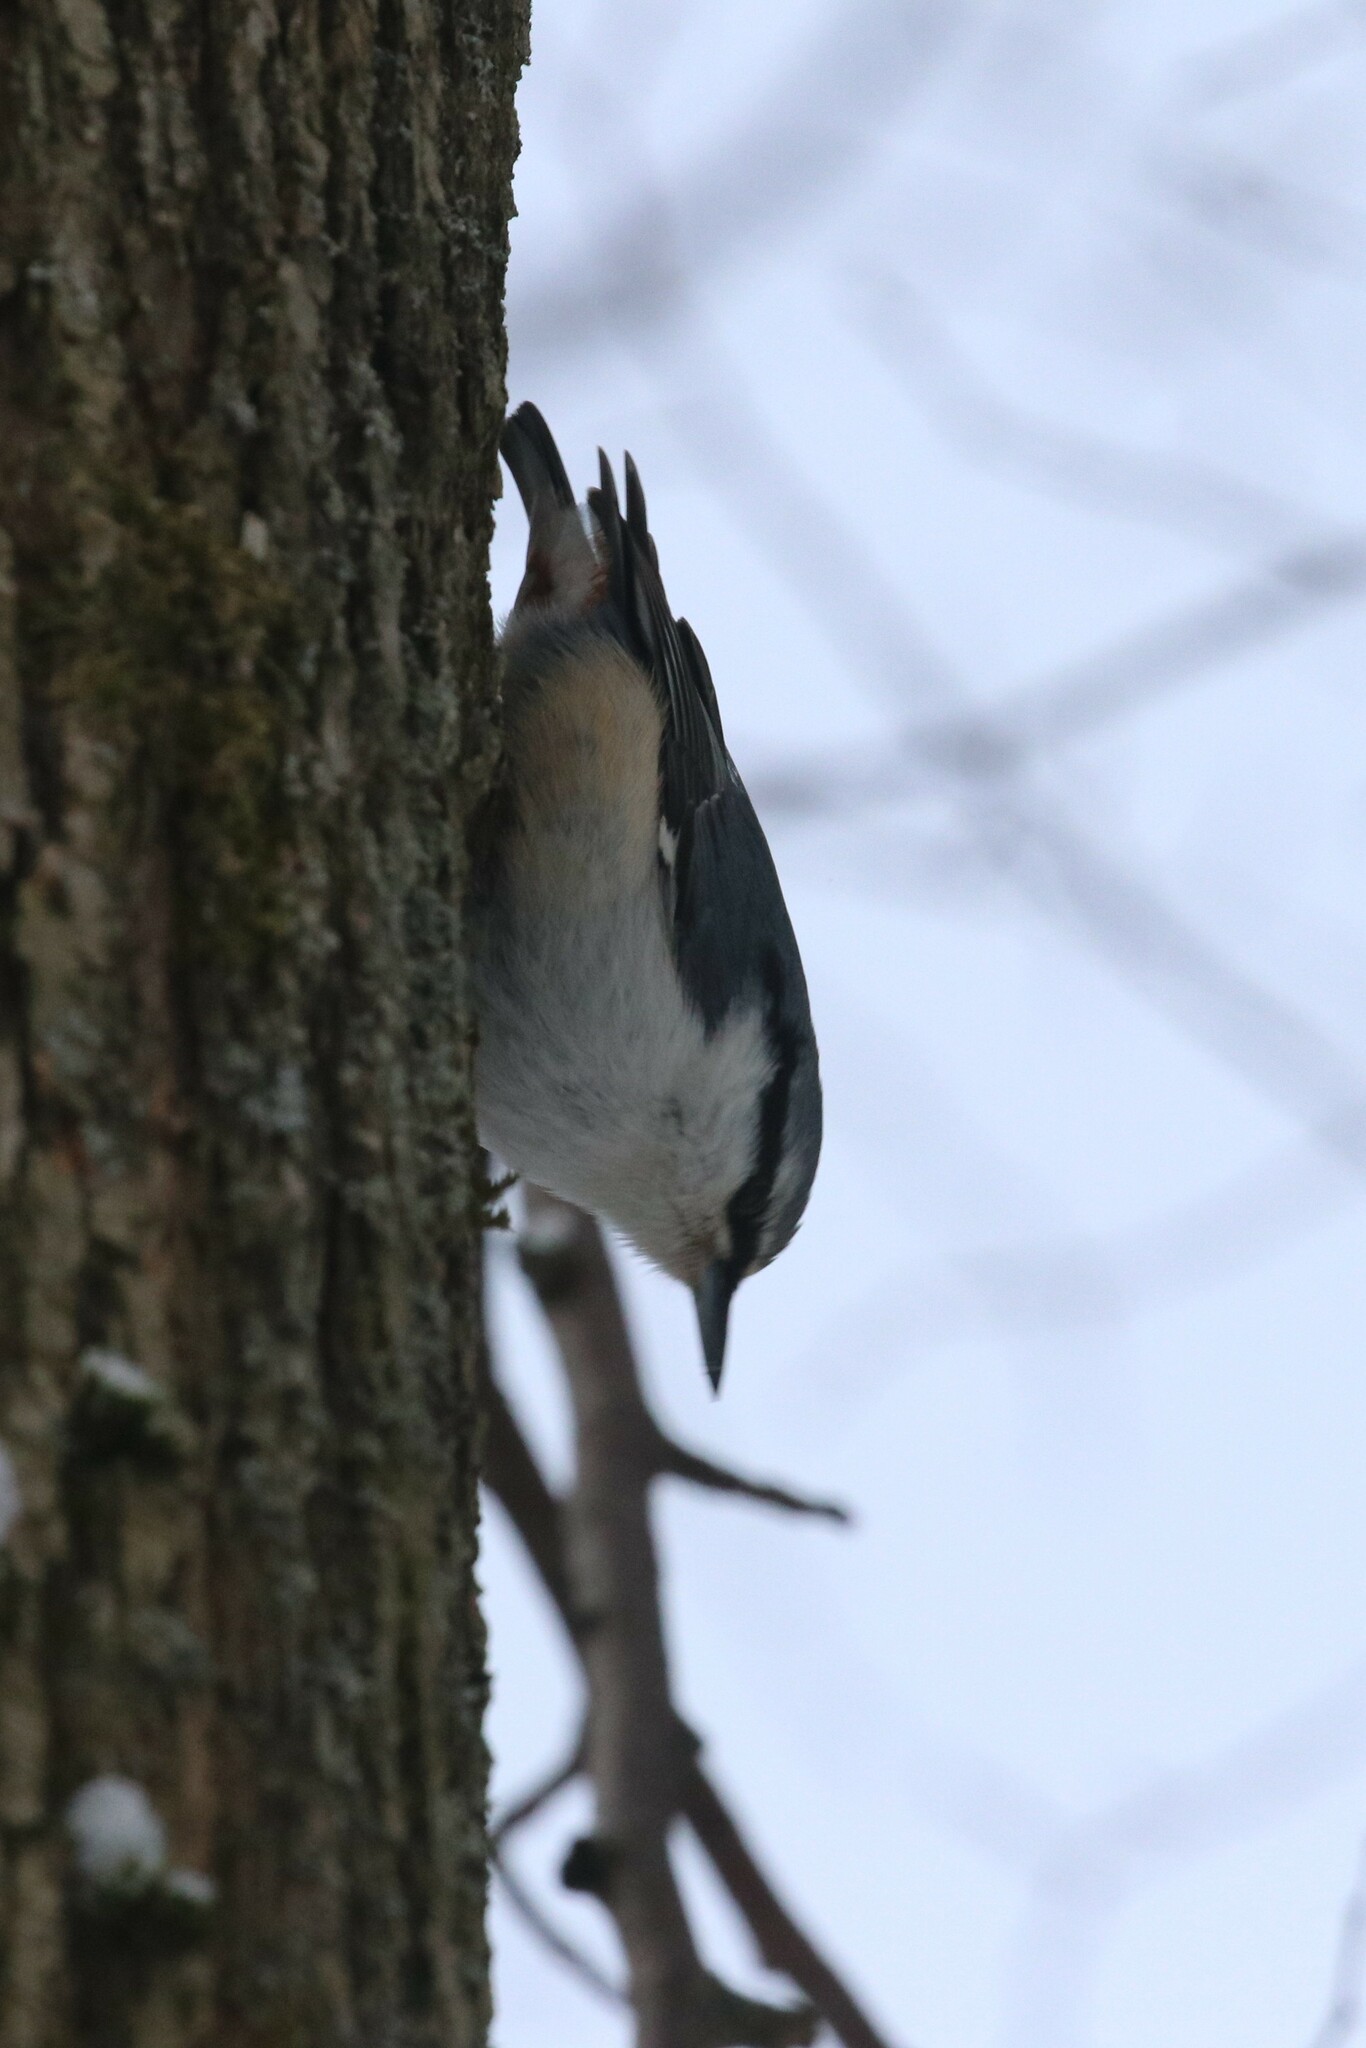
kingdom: Animalia
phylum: Chordata
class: Aves
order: Passeriformes
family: Sittidae
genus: Sitta
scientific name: Sitta europaea
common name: Eurasian nuthatch
